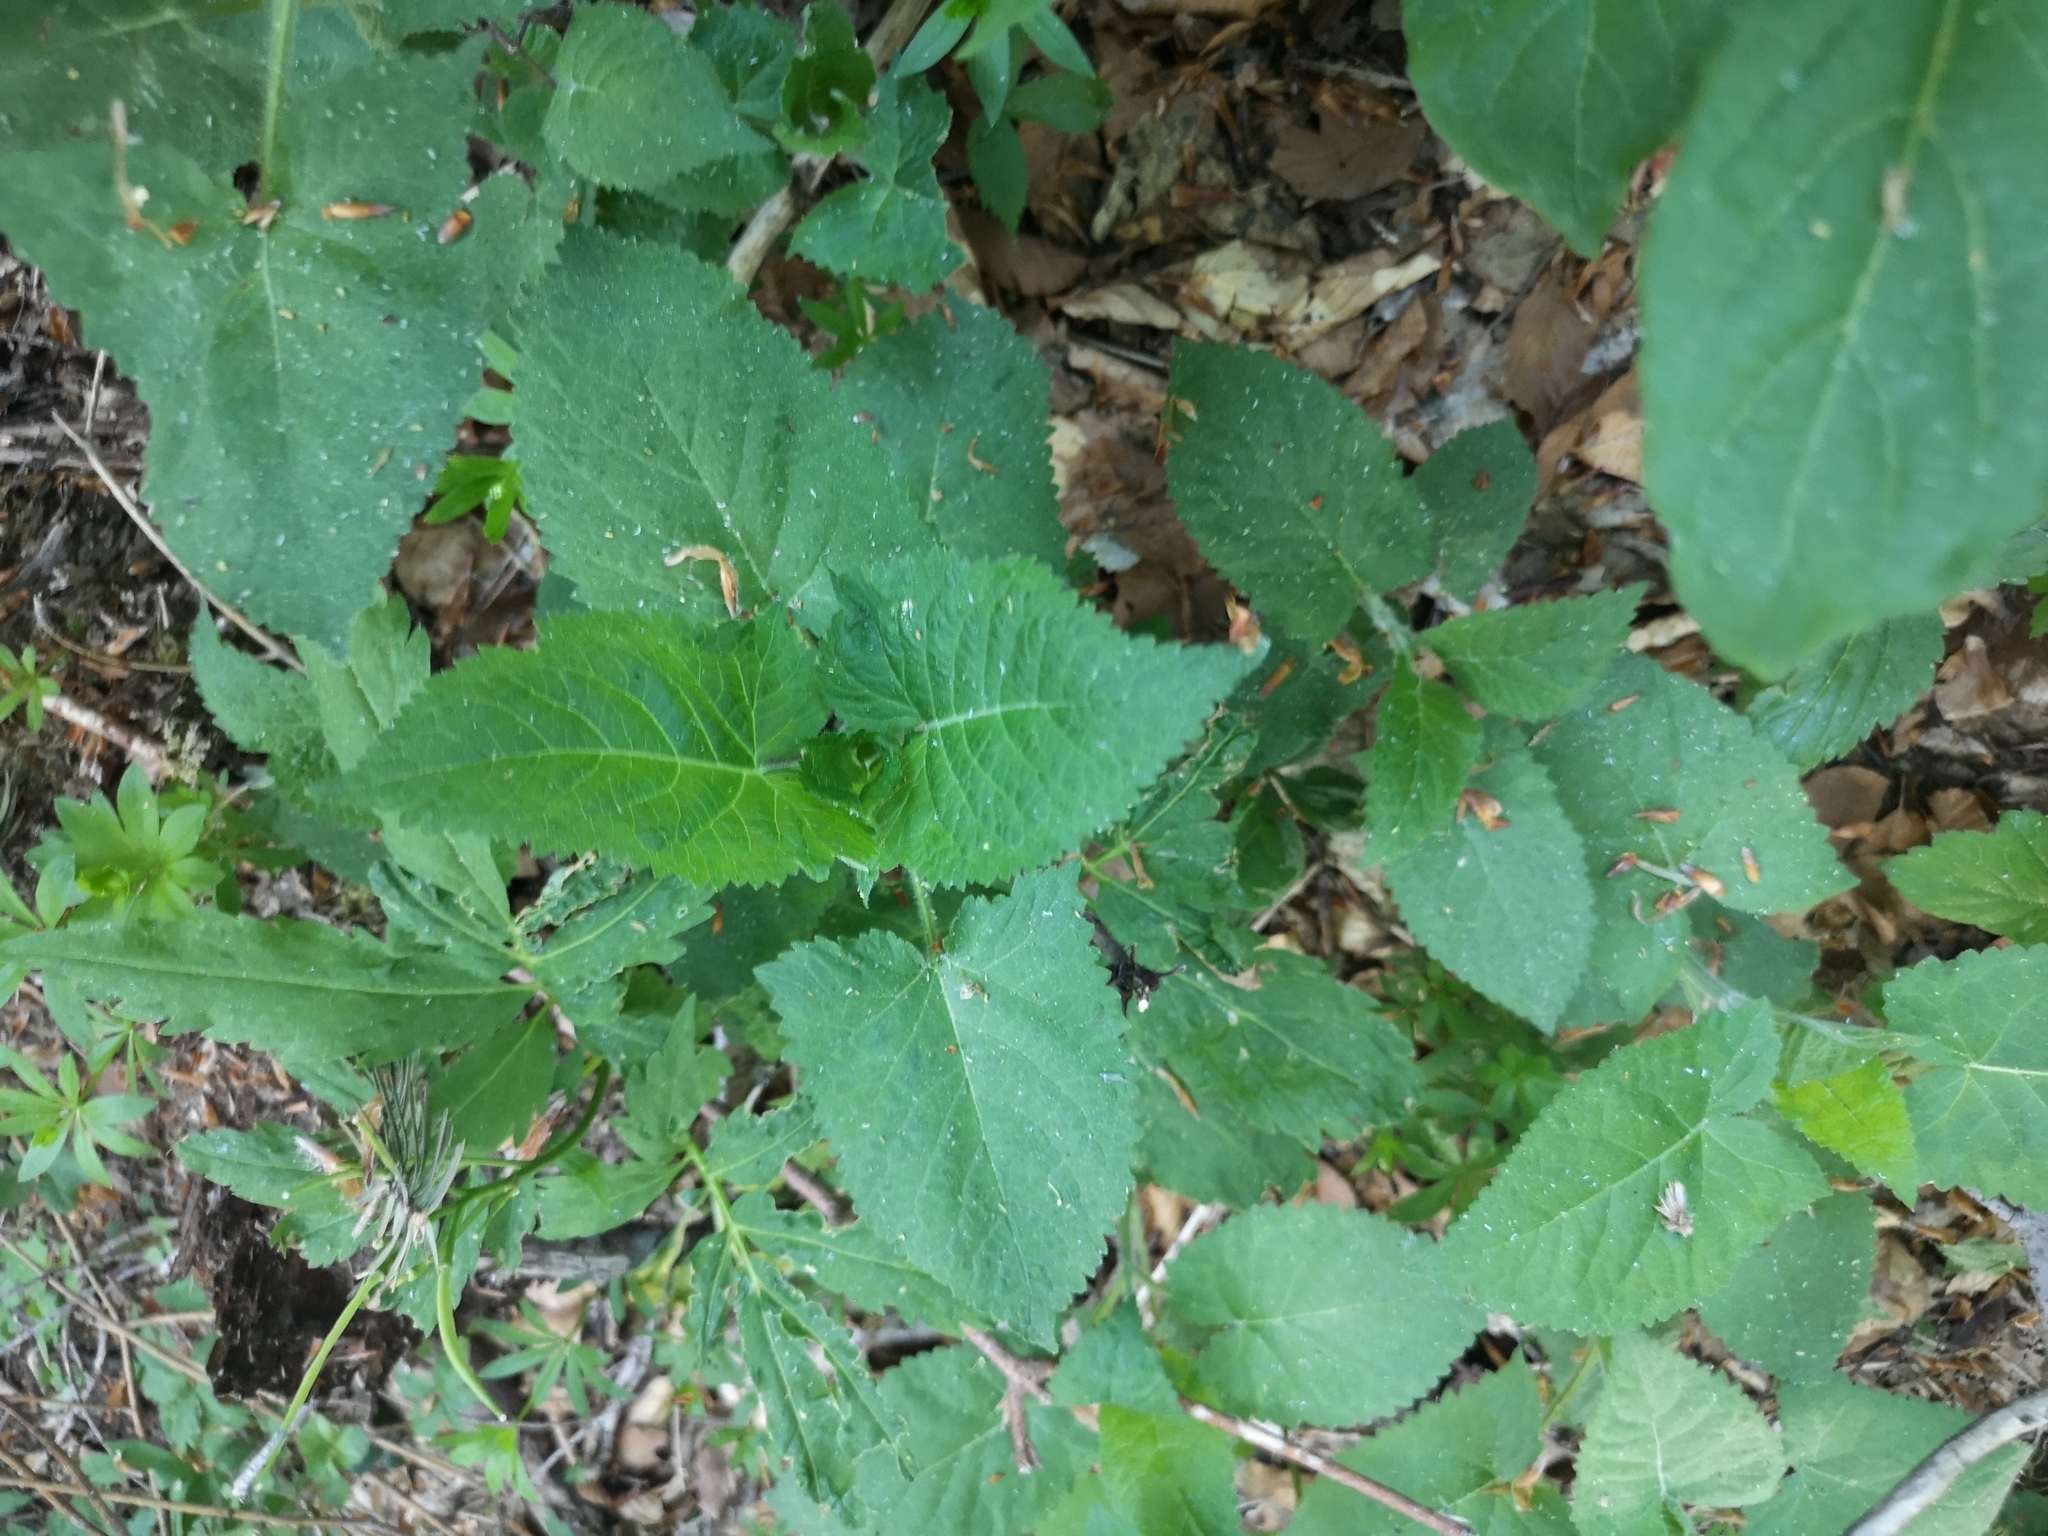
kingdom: Plantae
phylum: Tracheophyta
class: Magnoliopsida
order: Lamiales
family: Lamiaceae
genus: Salvia
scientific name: Salvia glutinosa
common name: Sticky clary
